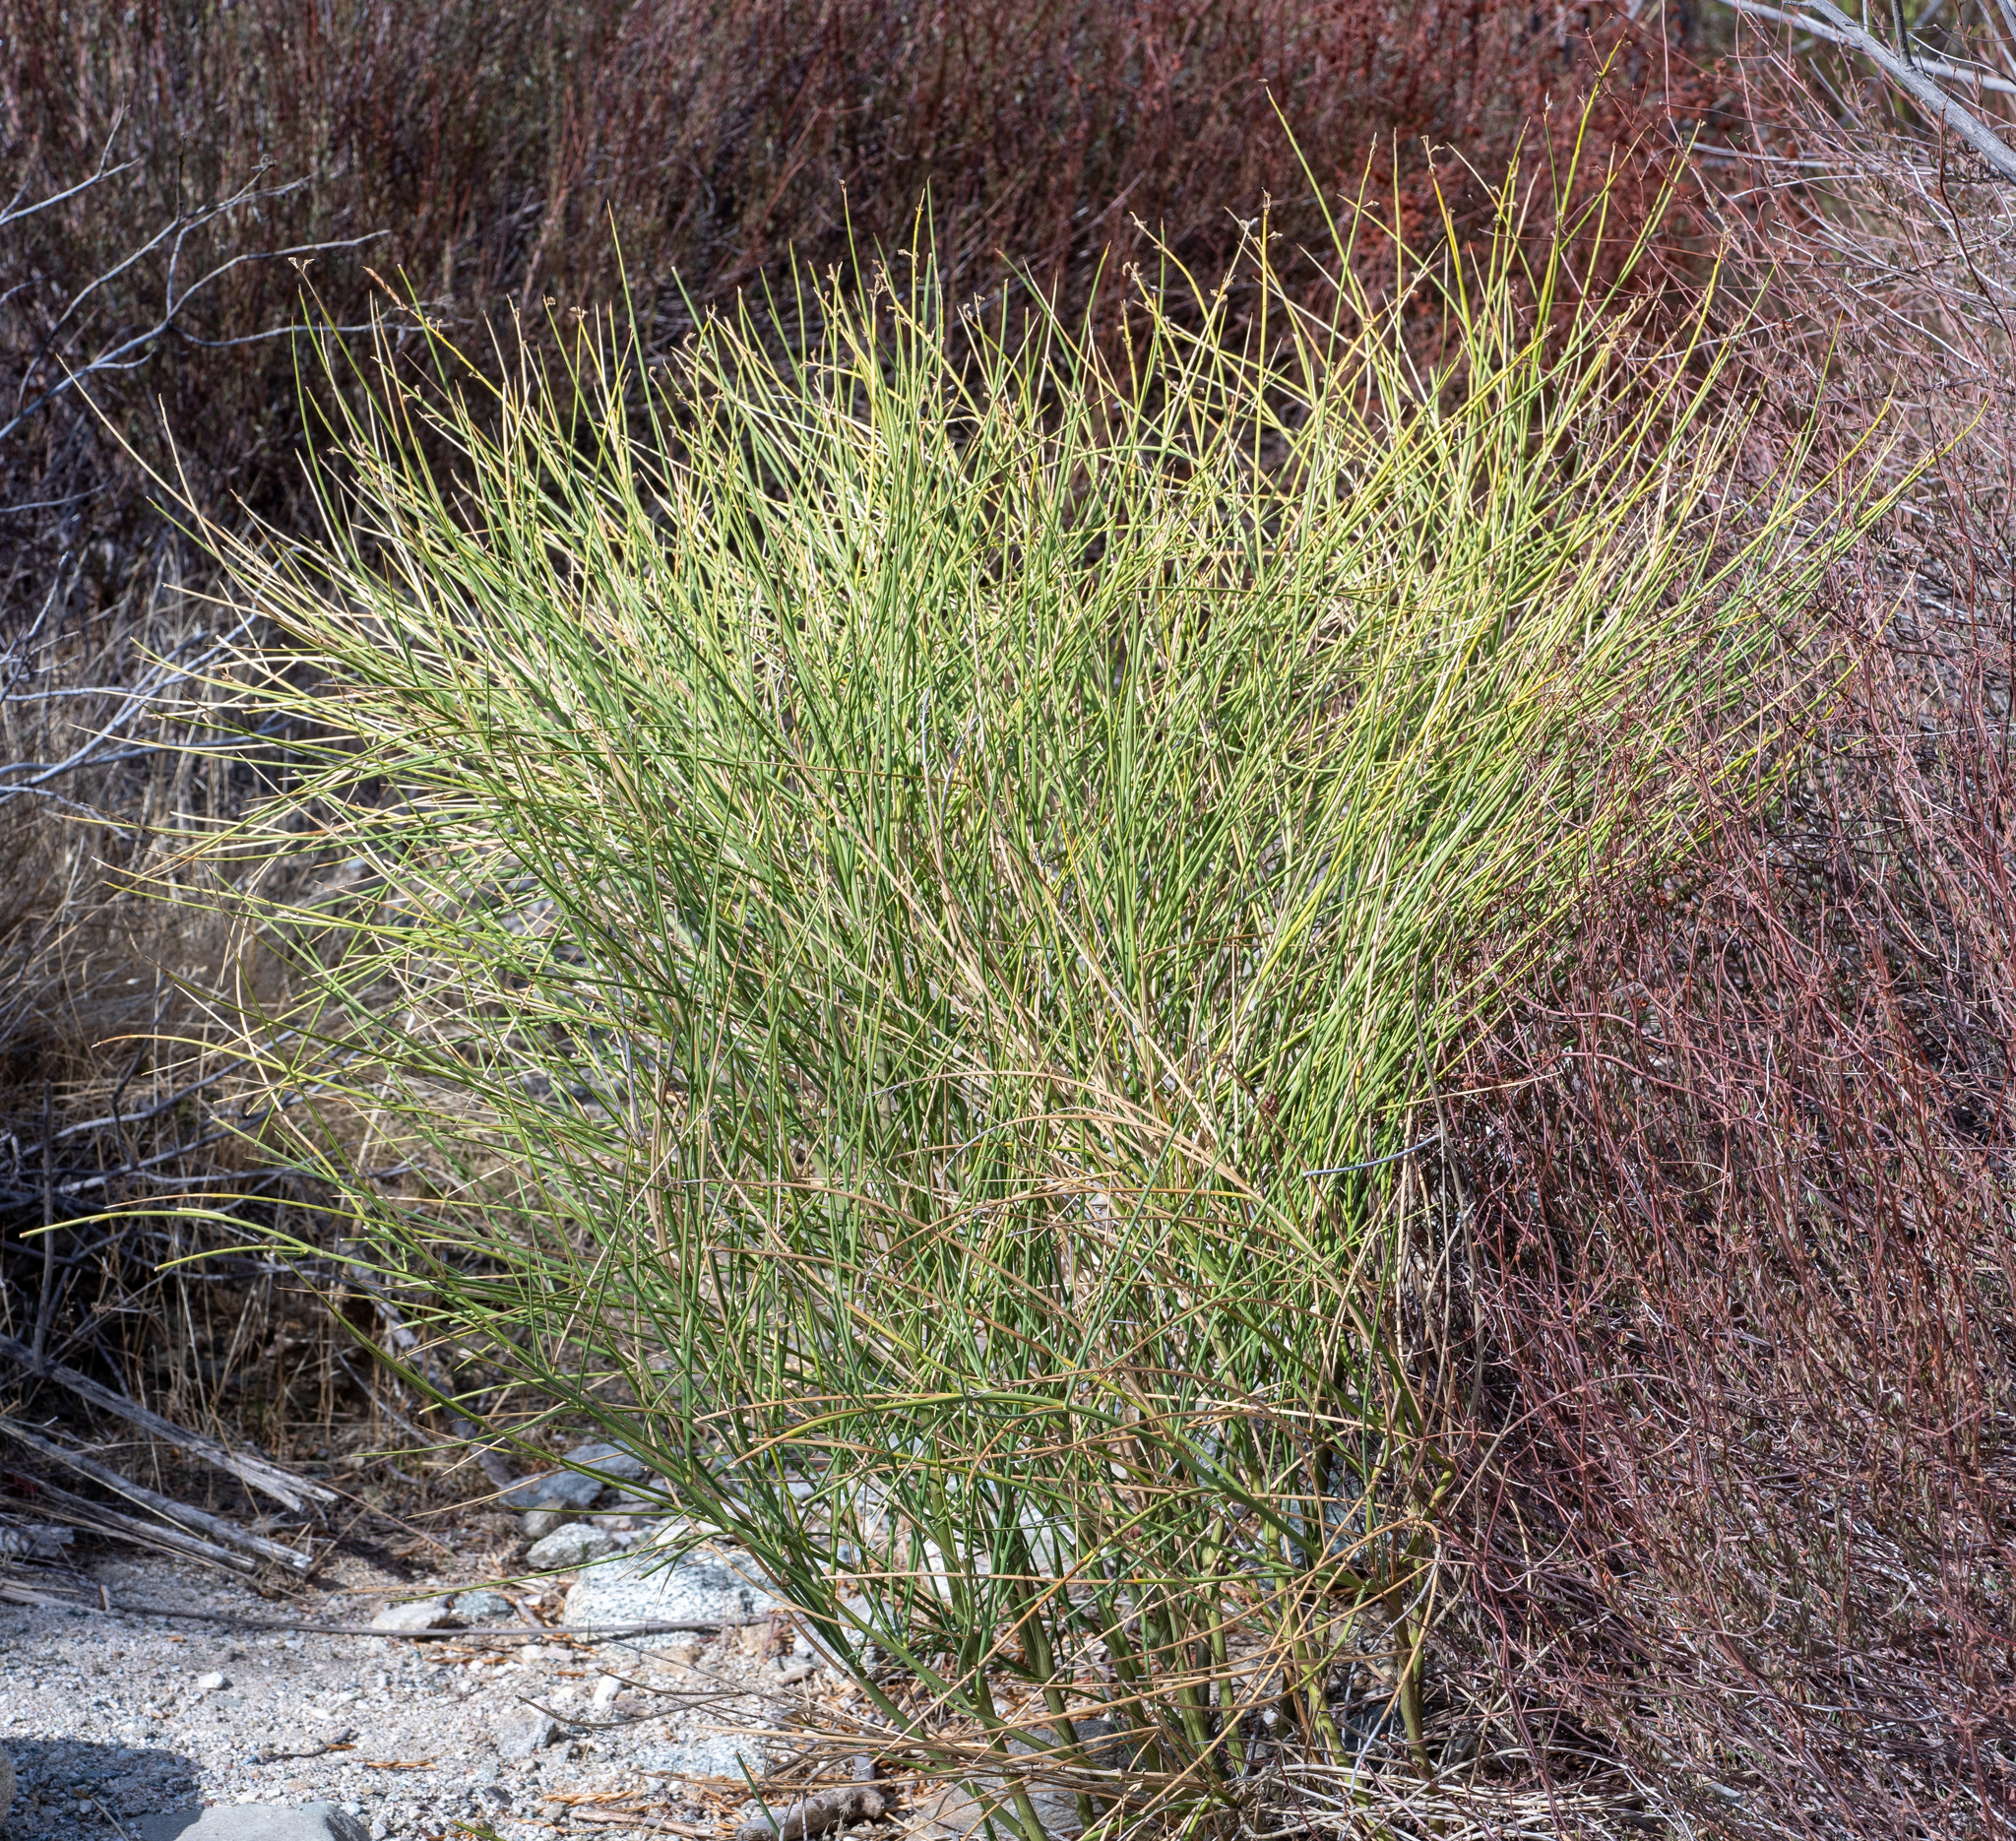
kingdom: Plantae
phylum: Tracheophyta
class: Magnoliopsida
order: Fabales
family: Fabaceae
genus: Spartium
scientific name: Spartium junceum
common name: Spanish broom
